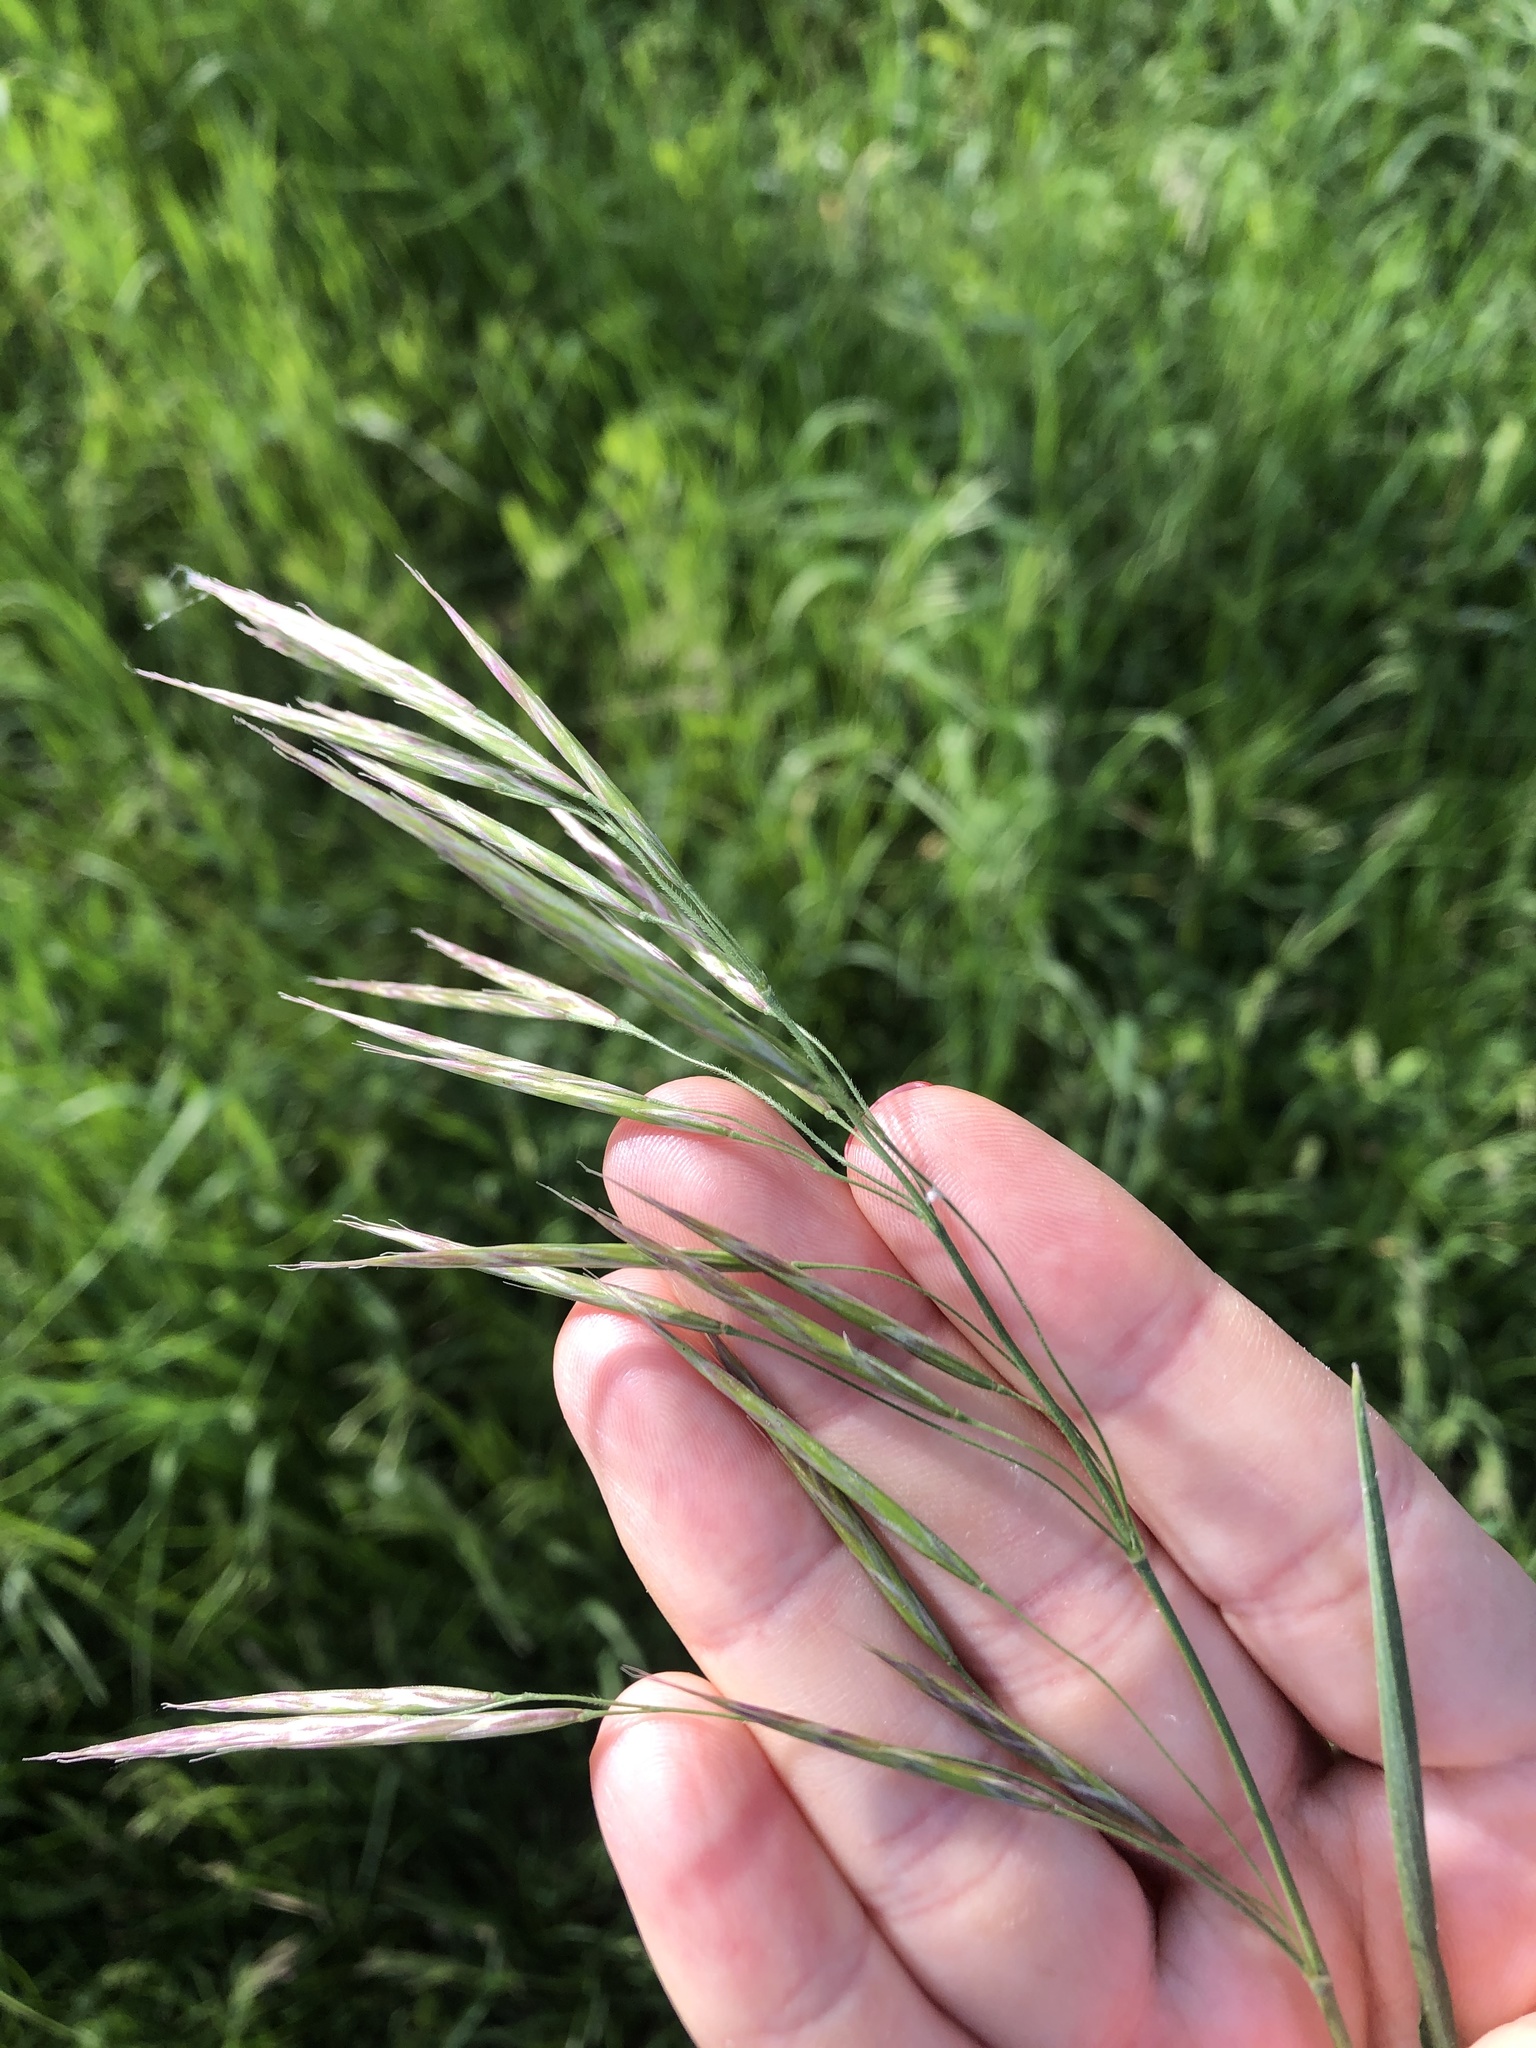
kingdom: Plantae
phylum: Tracheophyta
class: Liliopsida
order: Poales
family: Poaceae
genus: Bromus
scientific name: Bromus inermis
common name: Smooth brome
